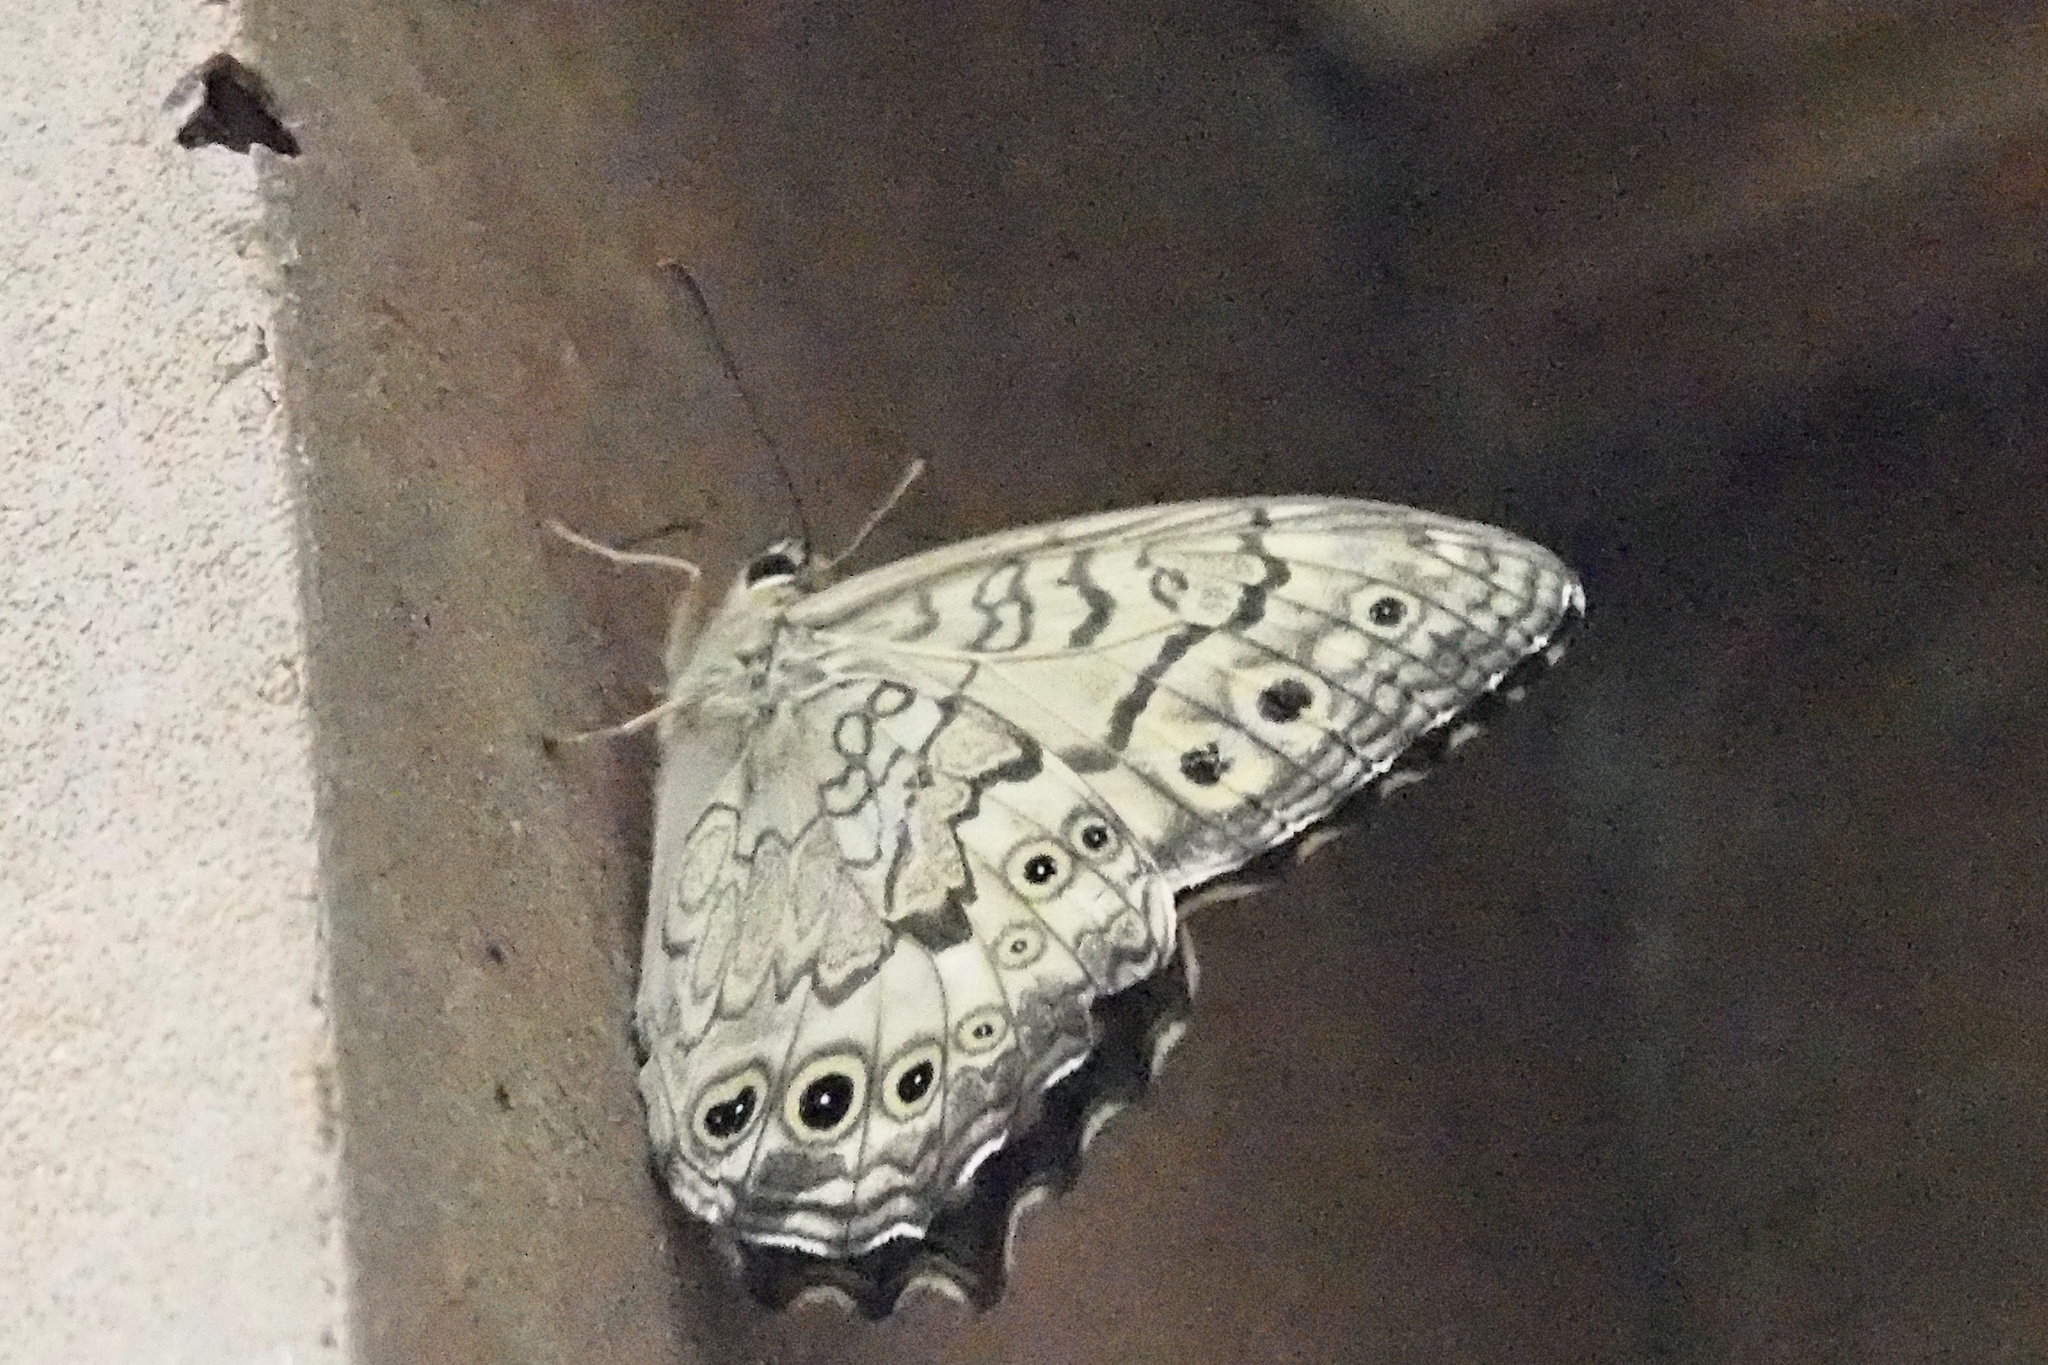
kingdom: Animalia
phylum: Arthropoda
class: Insecta
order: Lepidoptera
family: Nymphalidae
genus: Neope
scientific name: Neope goschkevitschii
